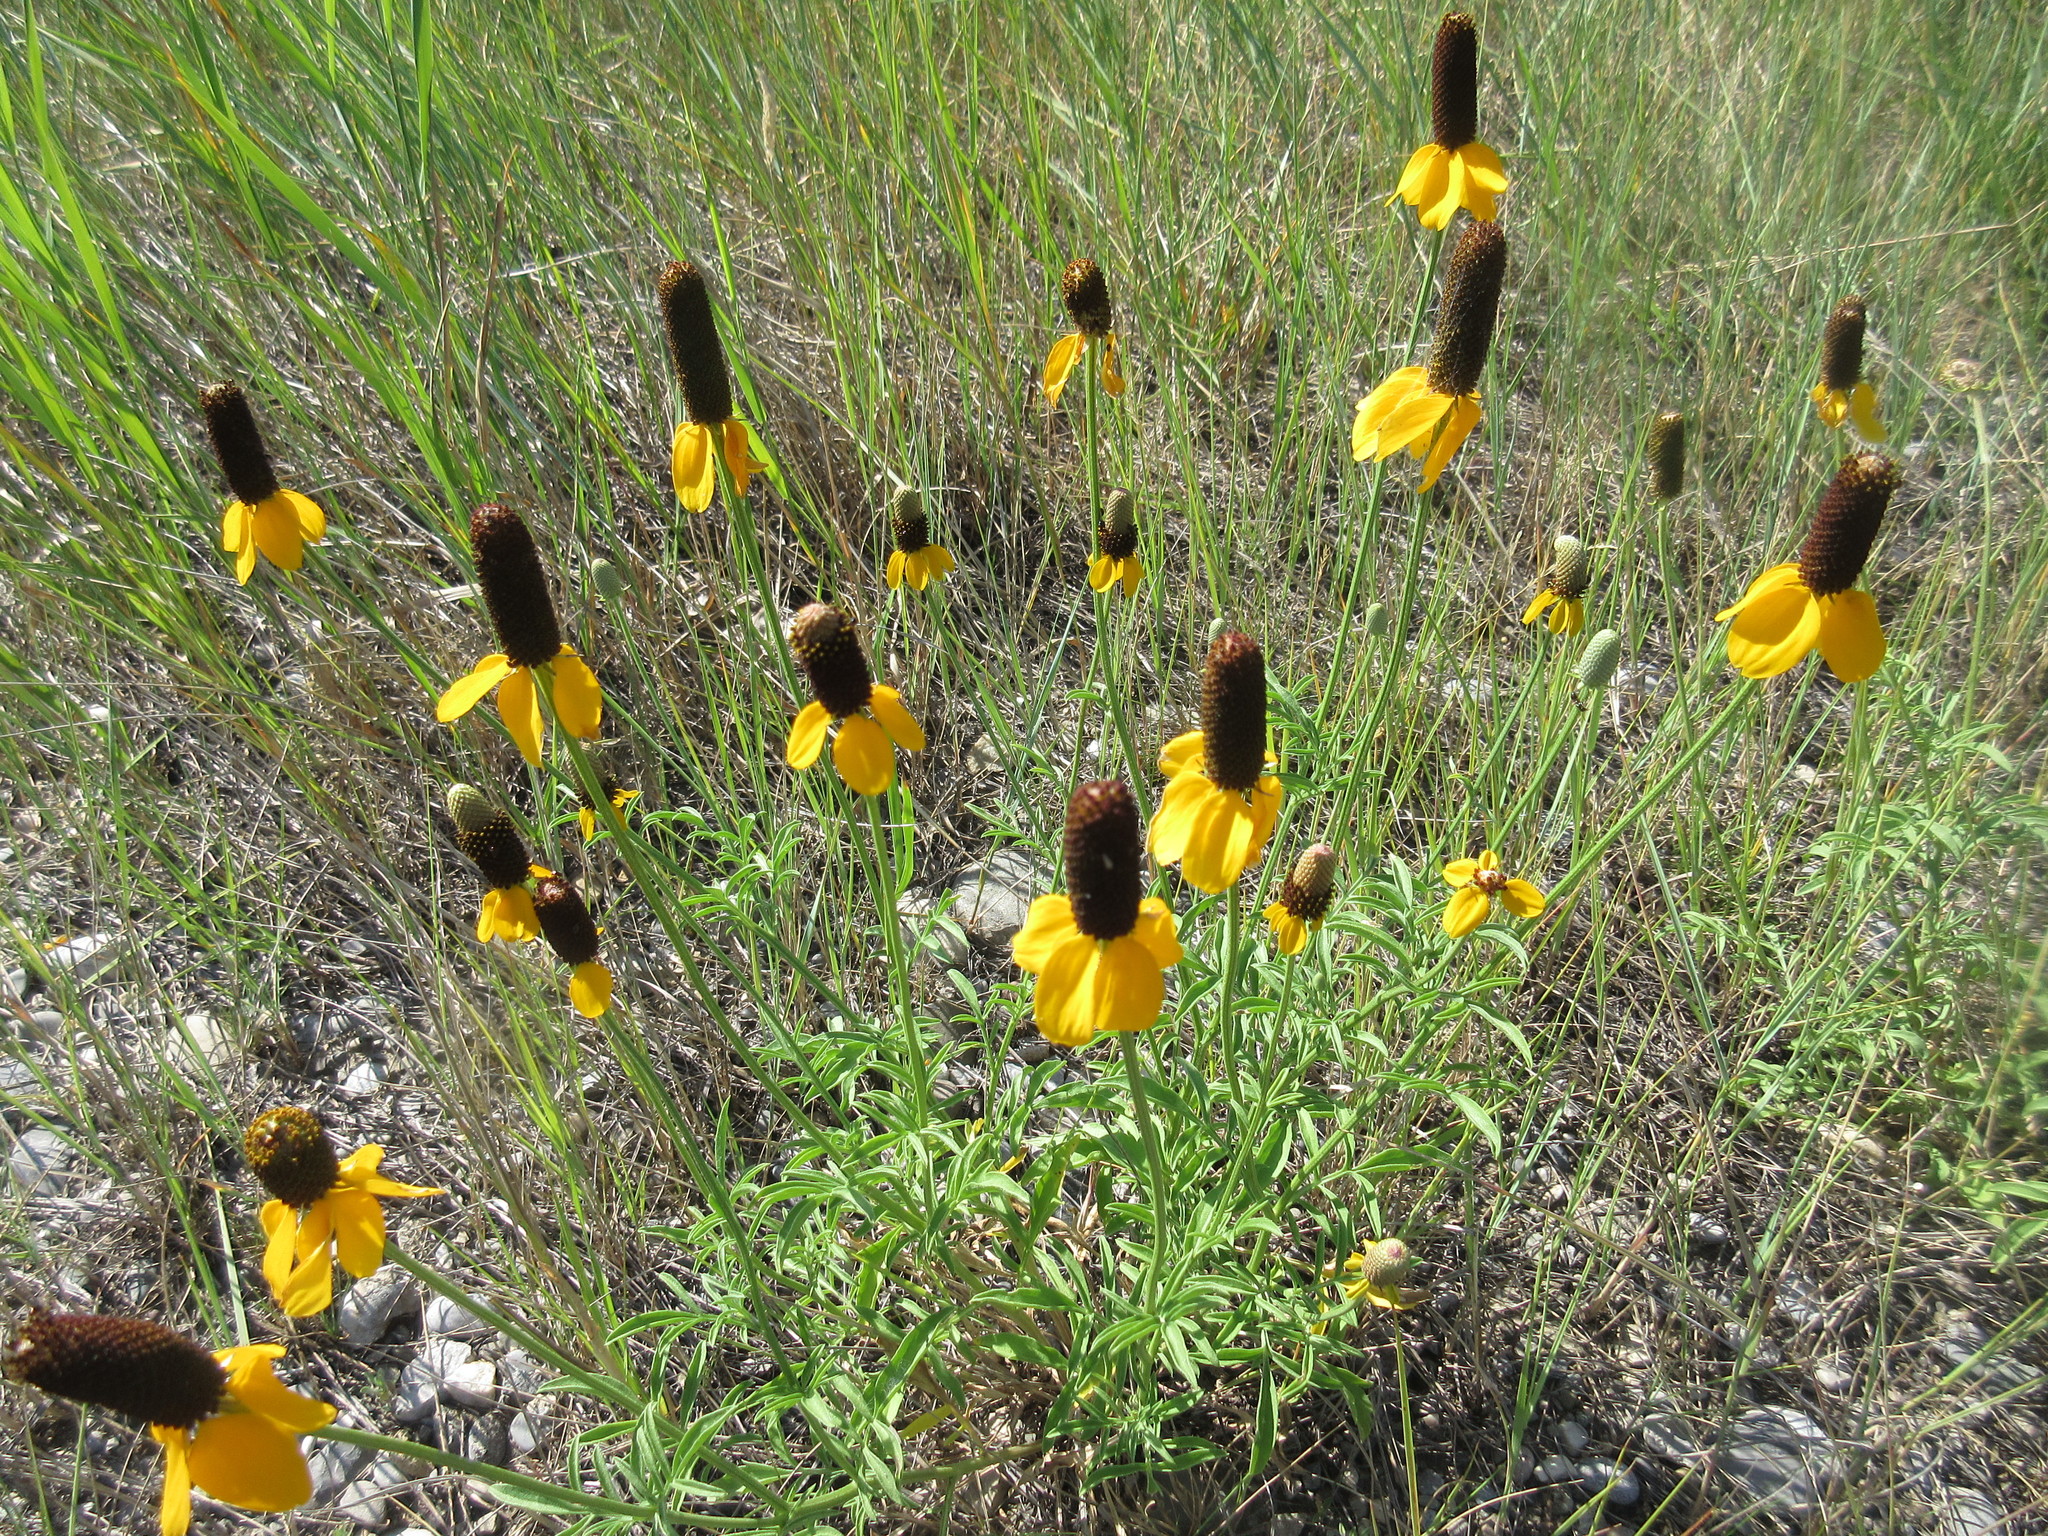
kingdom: Plantae
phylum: Tracheophyta
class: Magnoliopsida
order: Asterales
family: Asteraceae
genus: Ratibida
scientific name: Ratibida columnifera
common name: Prairie coneflower
